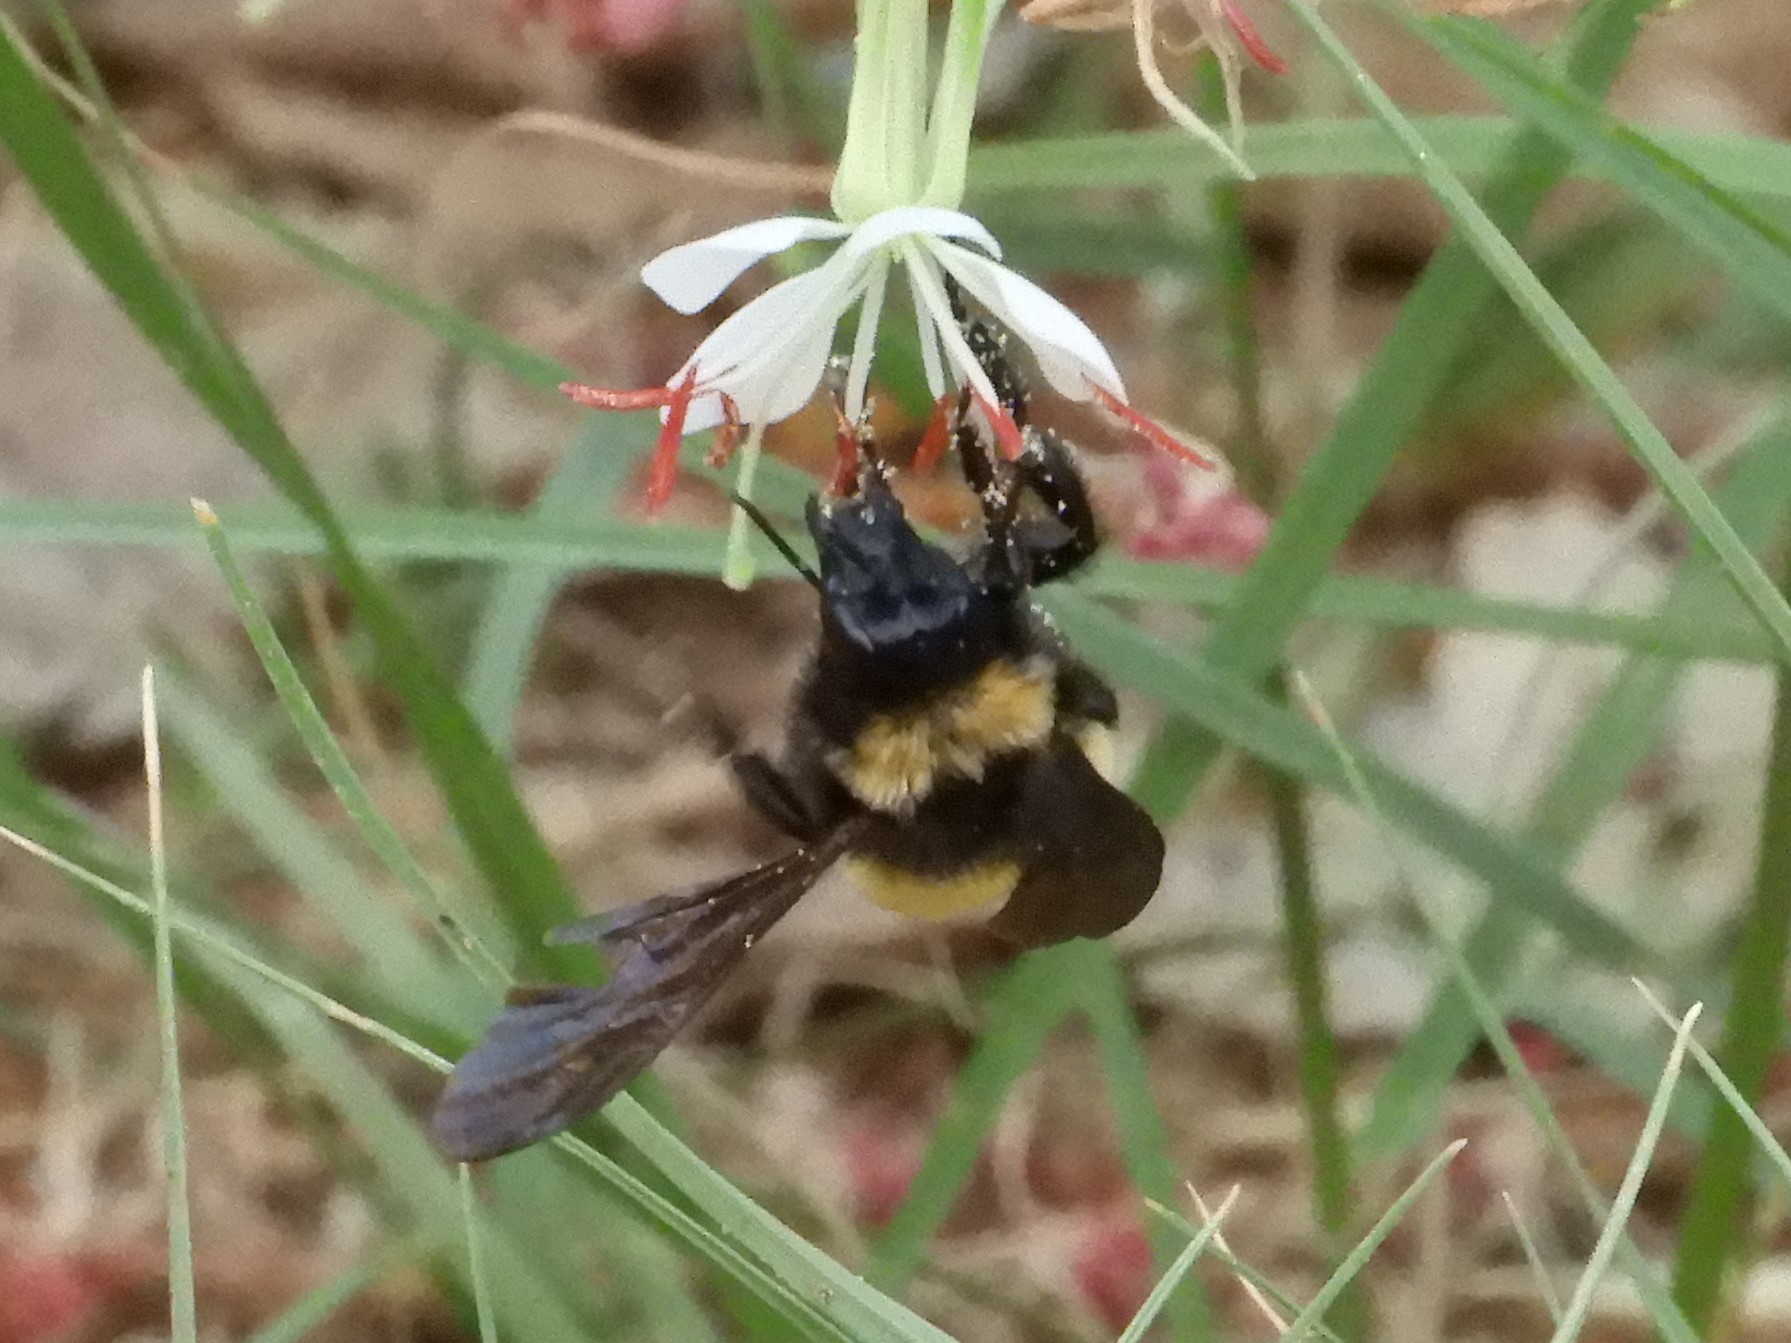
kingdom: Animalia
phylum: Arthropoda
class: Insecta
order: Hymenoptera
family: Apidae
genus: Bombus
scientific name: Bombus pensylvanicus
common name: Bumble bee
